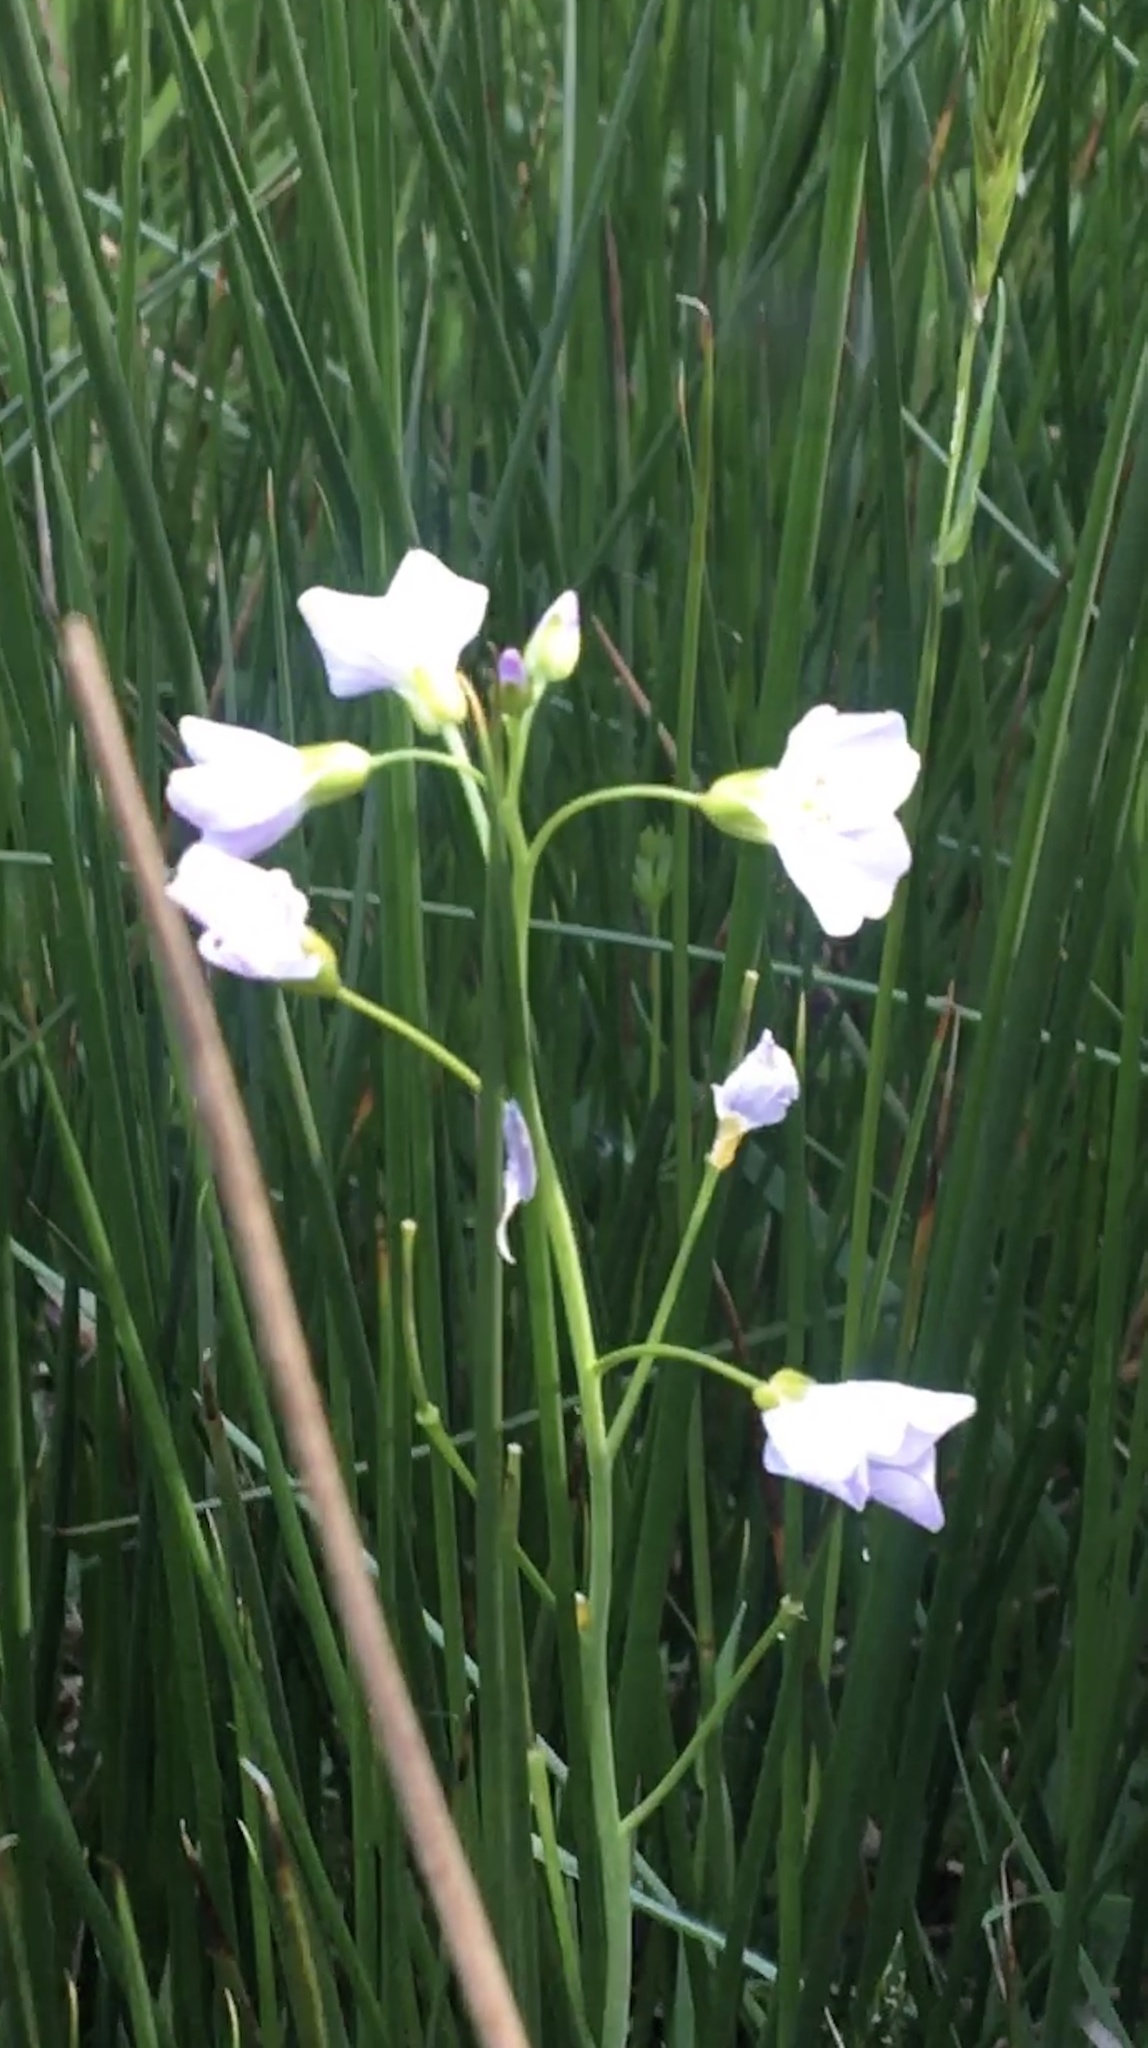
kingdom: Plantae
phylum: Tracheophyta
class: Magnoliopsida
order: Brassicales
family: Brassicaceae
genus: Cardamine
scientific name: Cardamine pratensis
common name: Cuckoo flower
